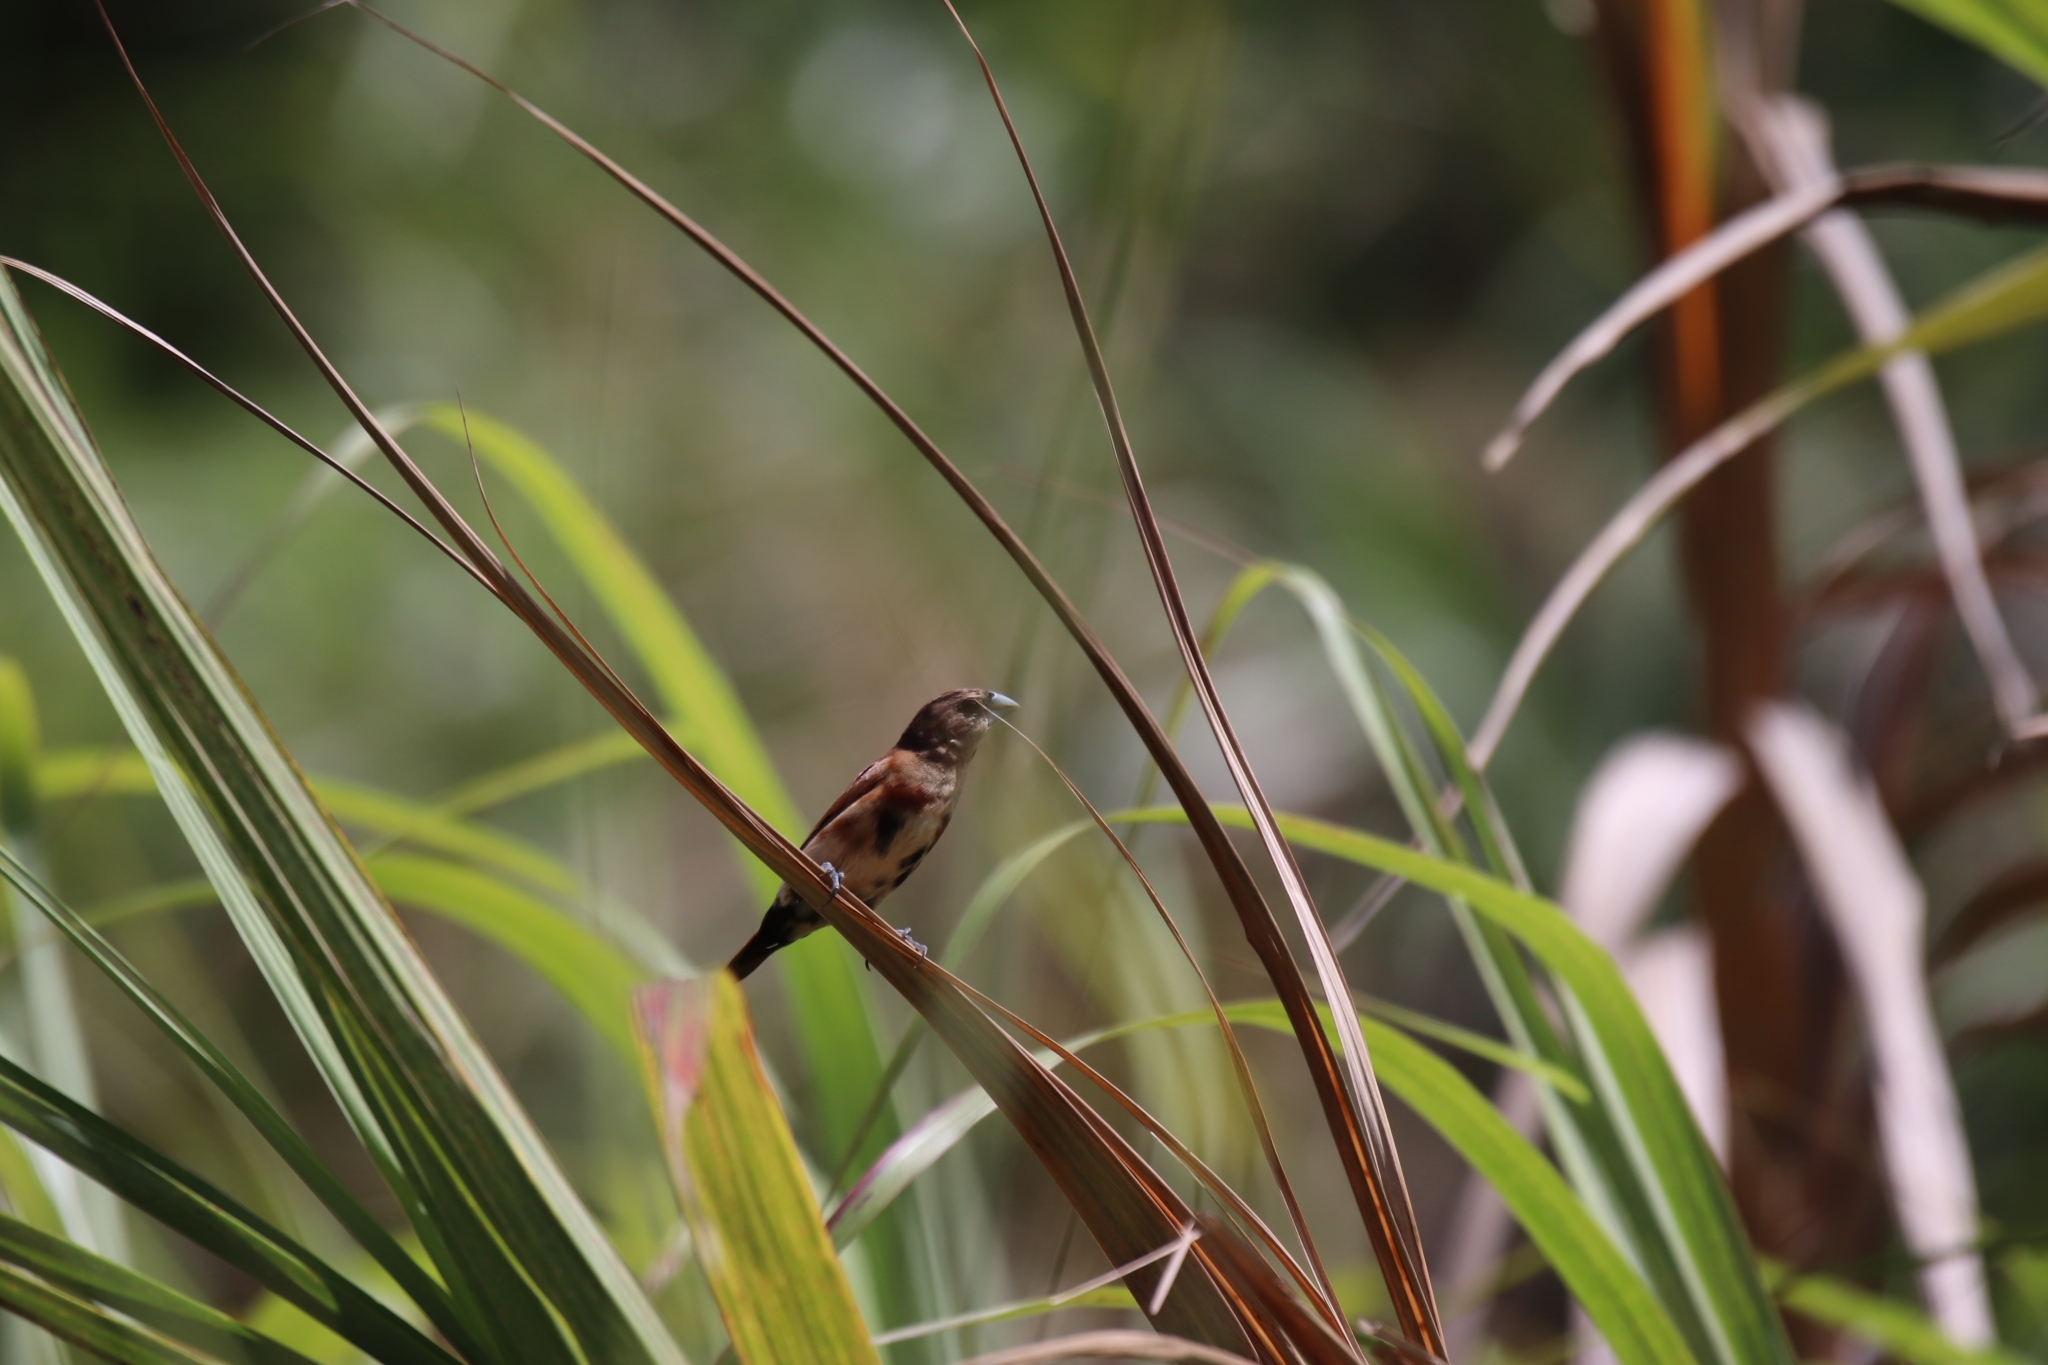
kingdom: Animalia
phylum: Chordata
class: Aves
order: Passeriformes
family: Estrildidae
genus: Lonchura
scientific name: Lonchura atricapilla
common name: Chestnut munia
